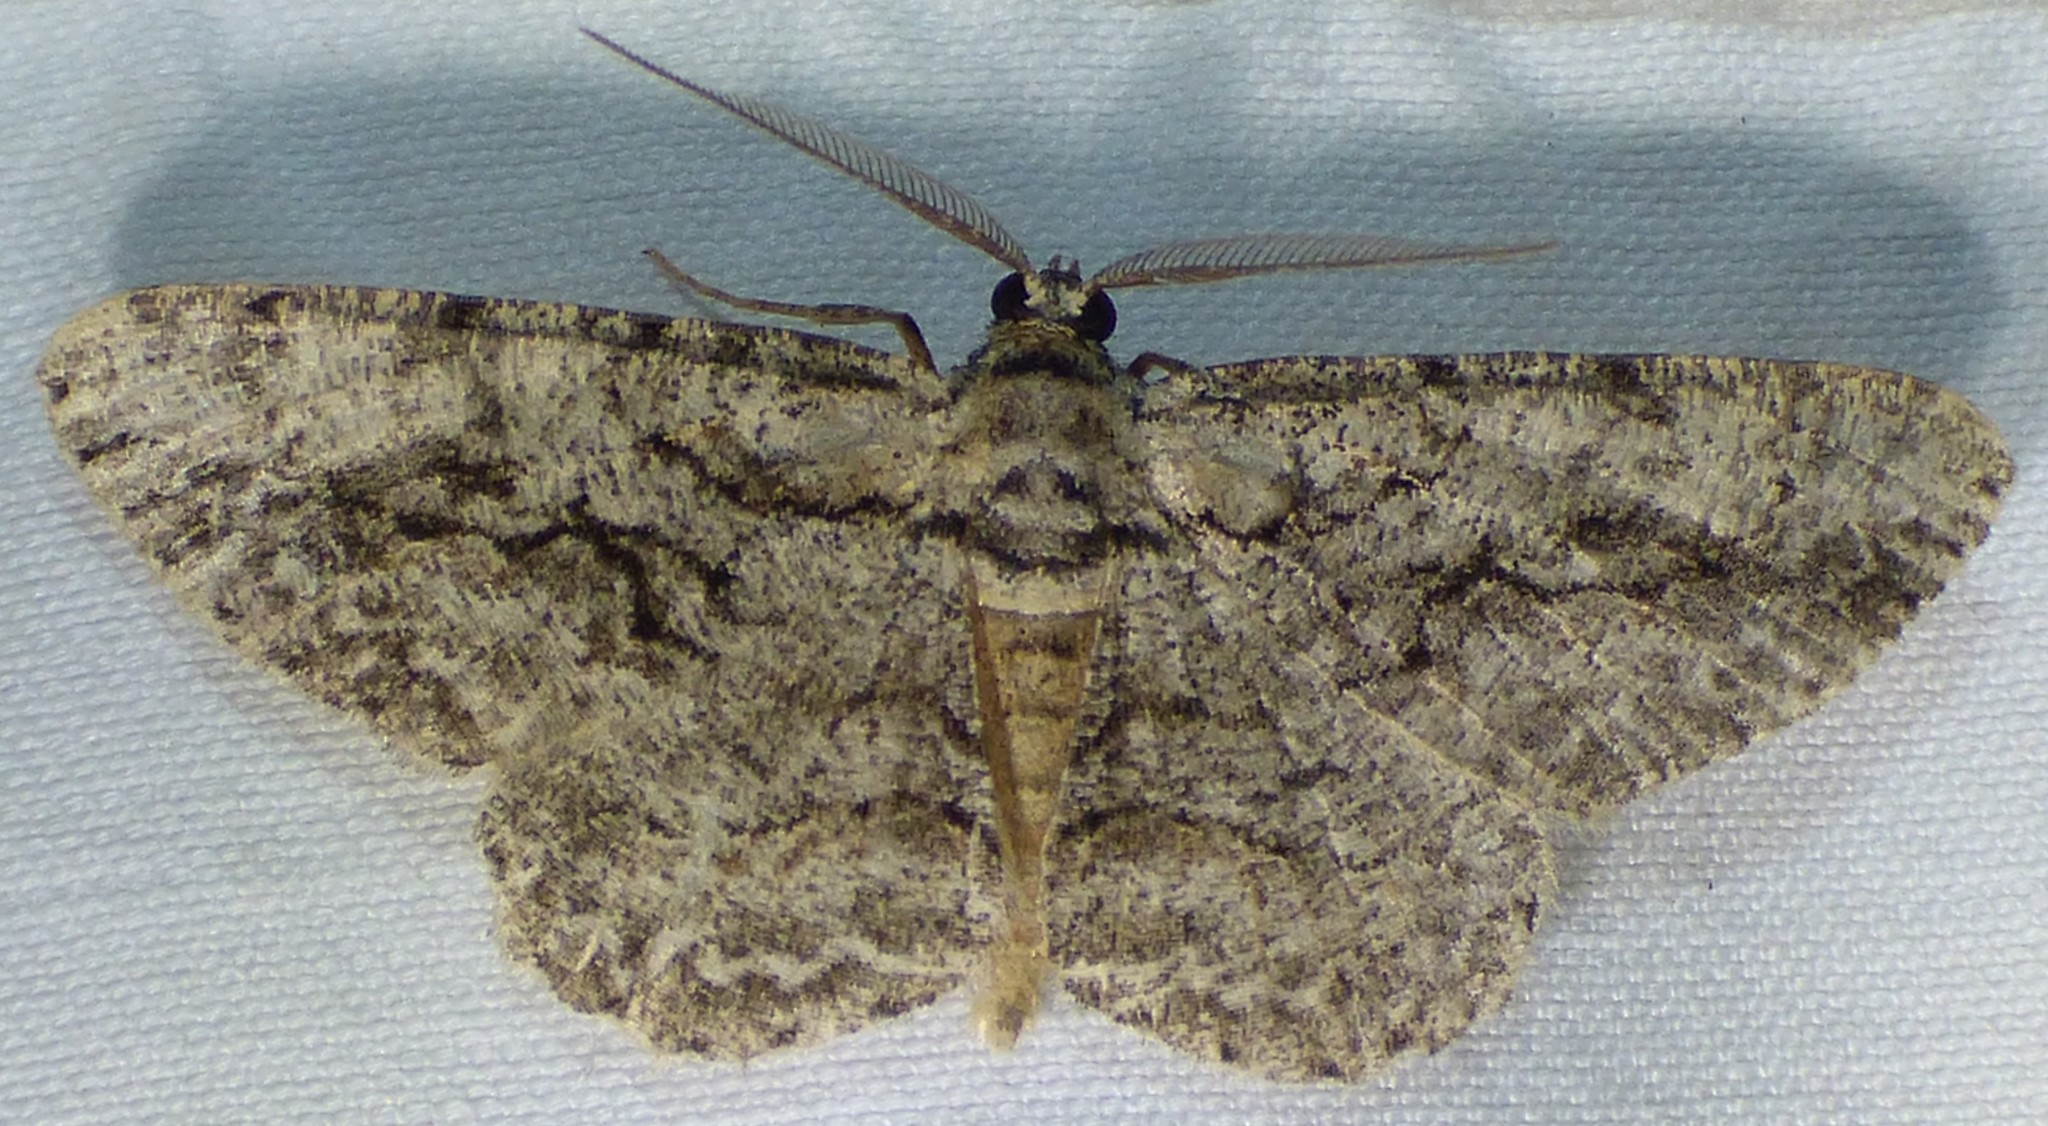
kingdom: Animalia
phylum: Arthropoda
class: Insecta
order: Lepidoptera
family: Geometridae
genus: Anavitrinella
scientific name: Anavitrinella pampinaria
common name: Common gray
